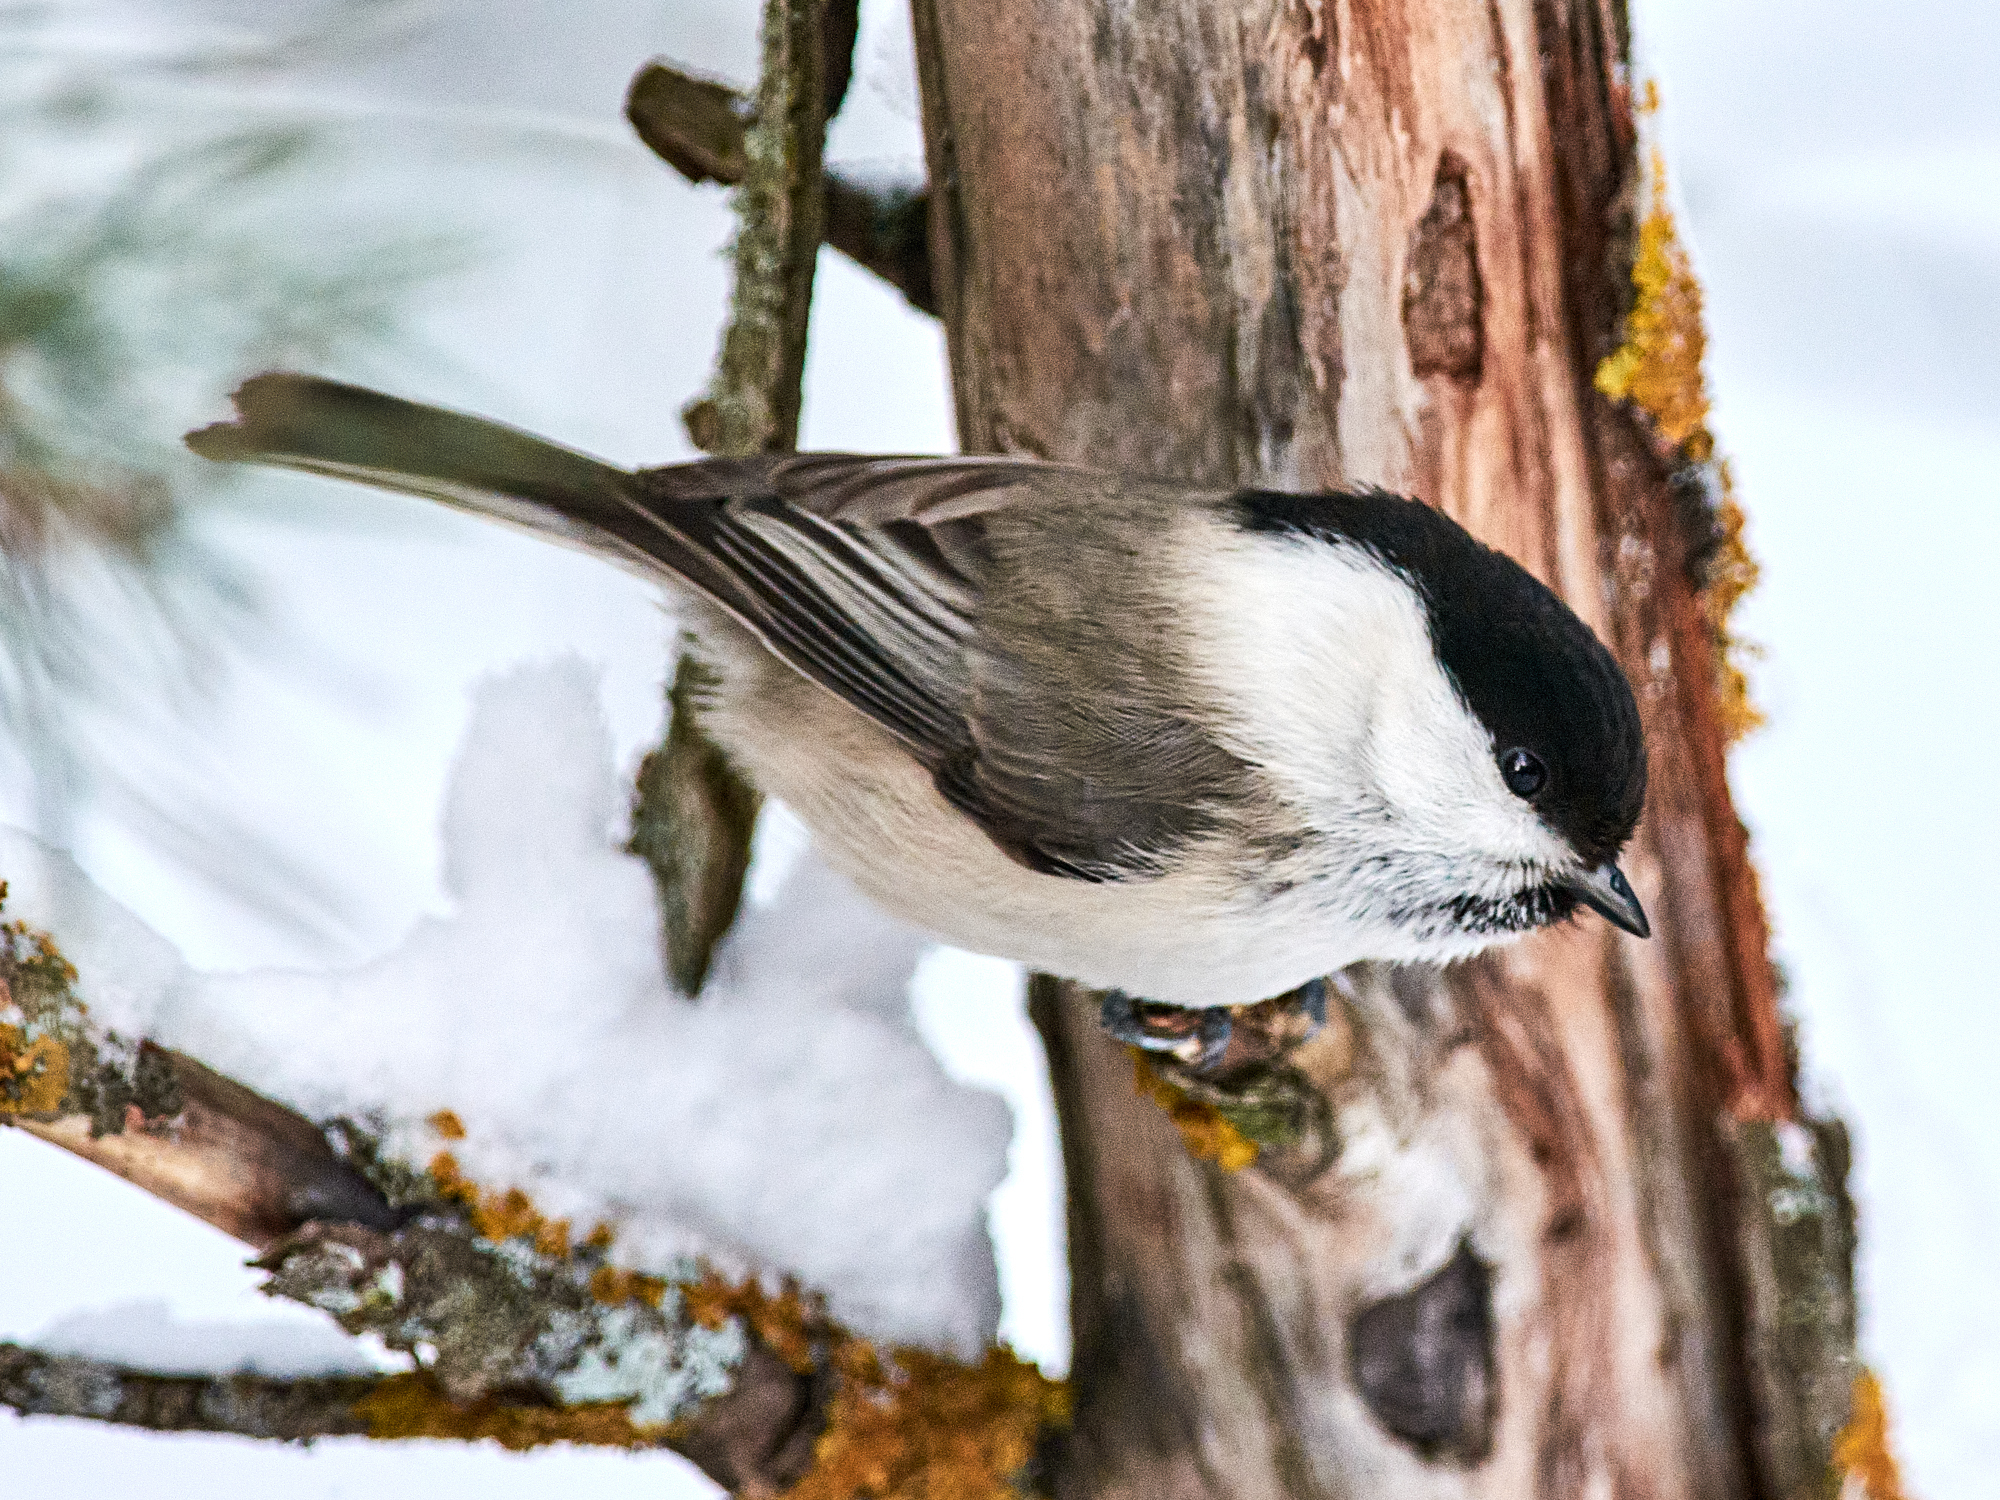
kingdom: Animalia
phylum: Chordata
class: Aves
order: Passeriformes
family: Paridae
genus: Poecile
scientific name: Poecile montanus
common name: Willow tit
